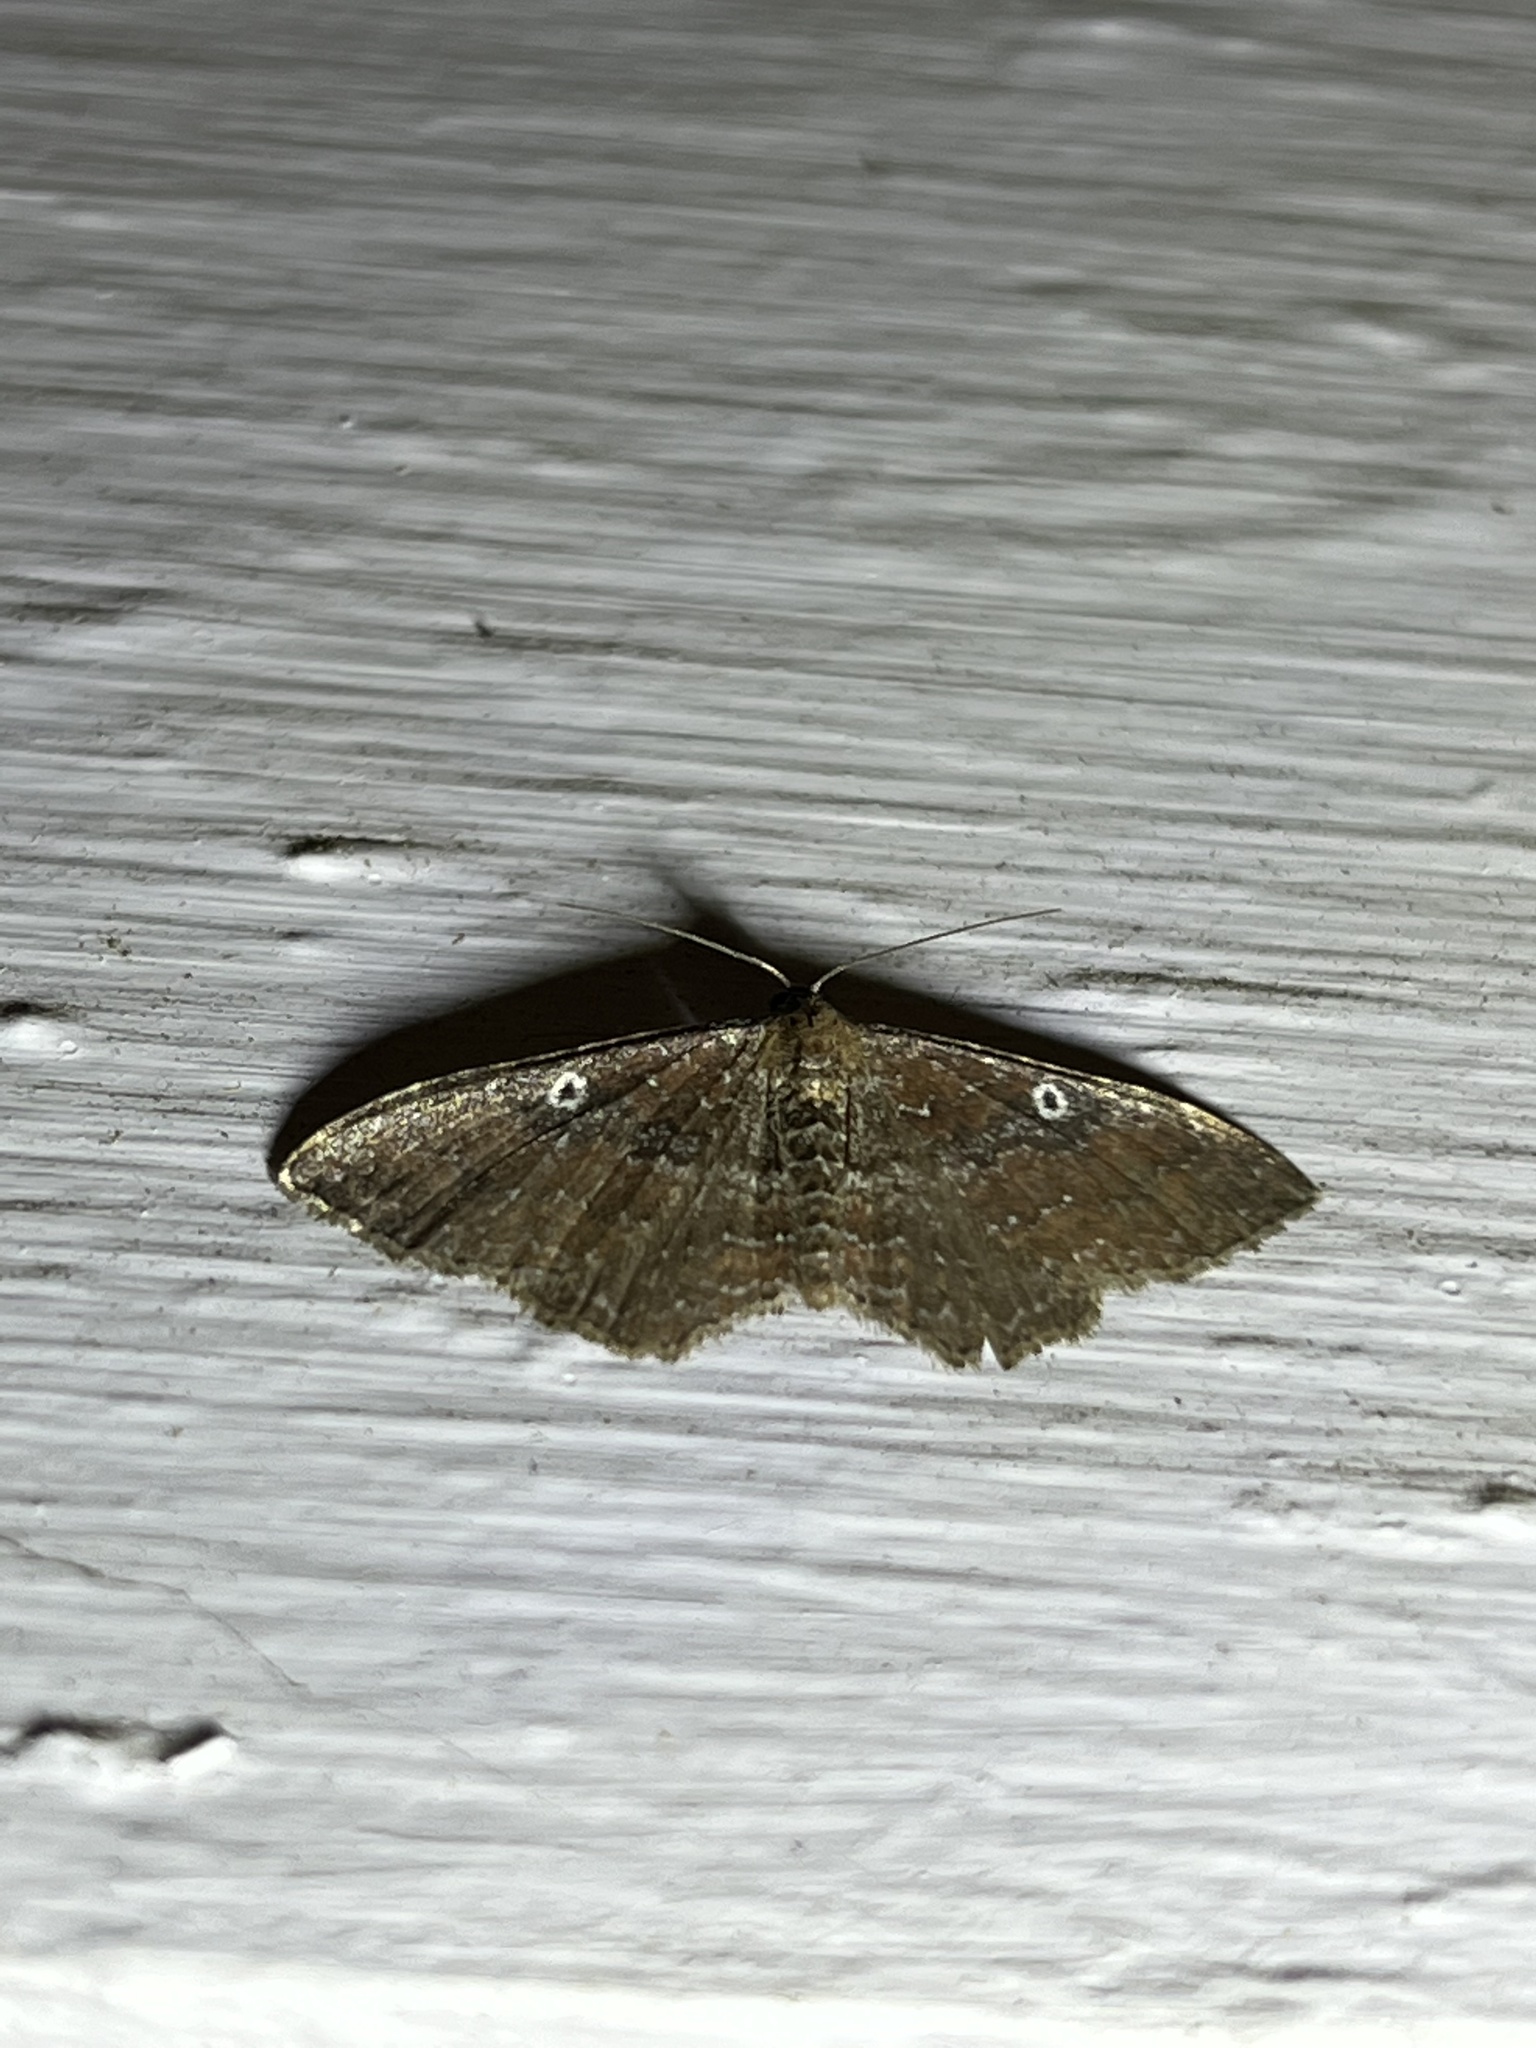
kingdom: Animalia
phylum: Arthropoda
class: Insecta
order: Lepidoptera
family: Geometridae
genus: Orthonama
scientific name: Orthonama obstipata
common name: The gem
